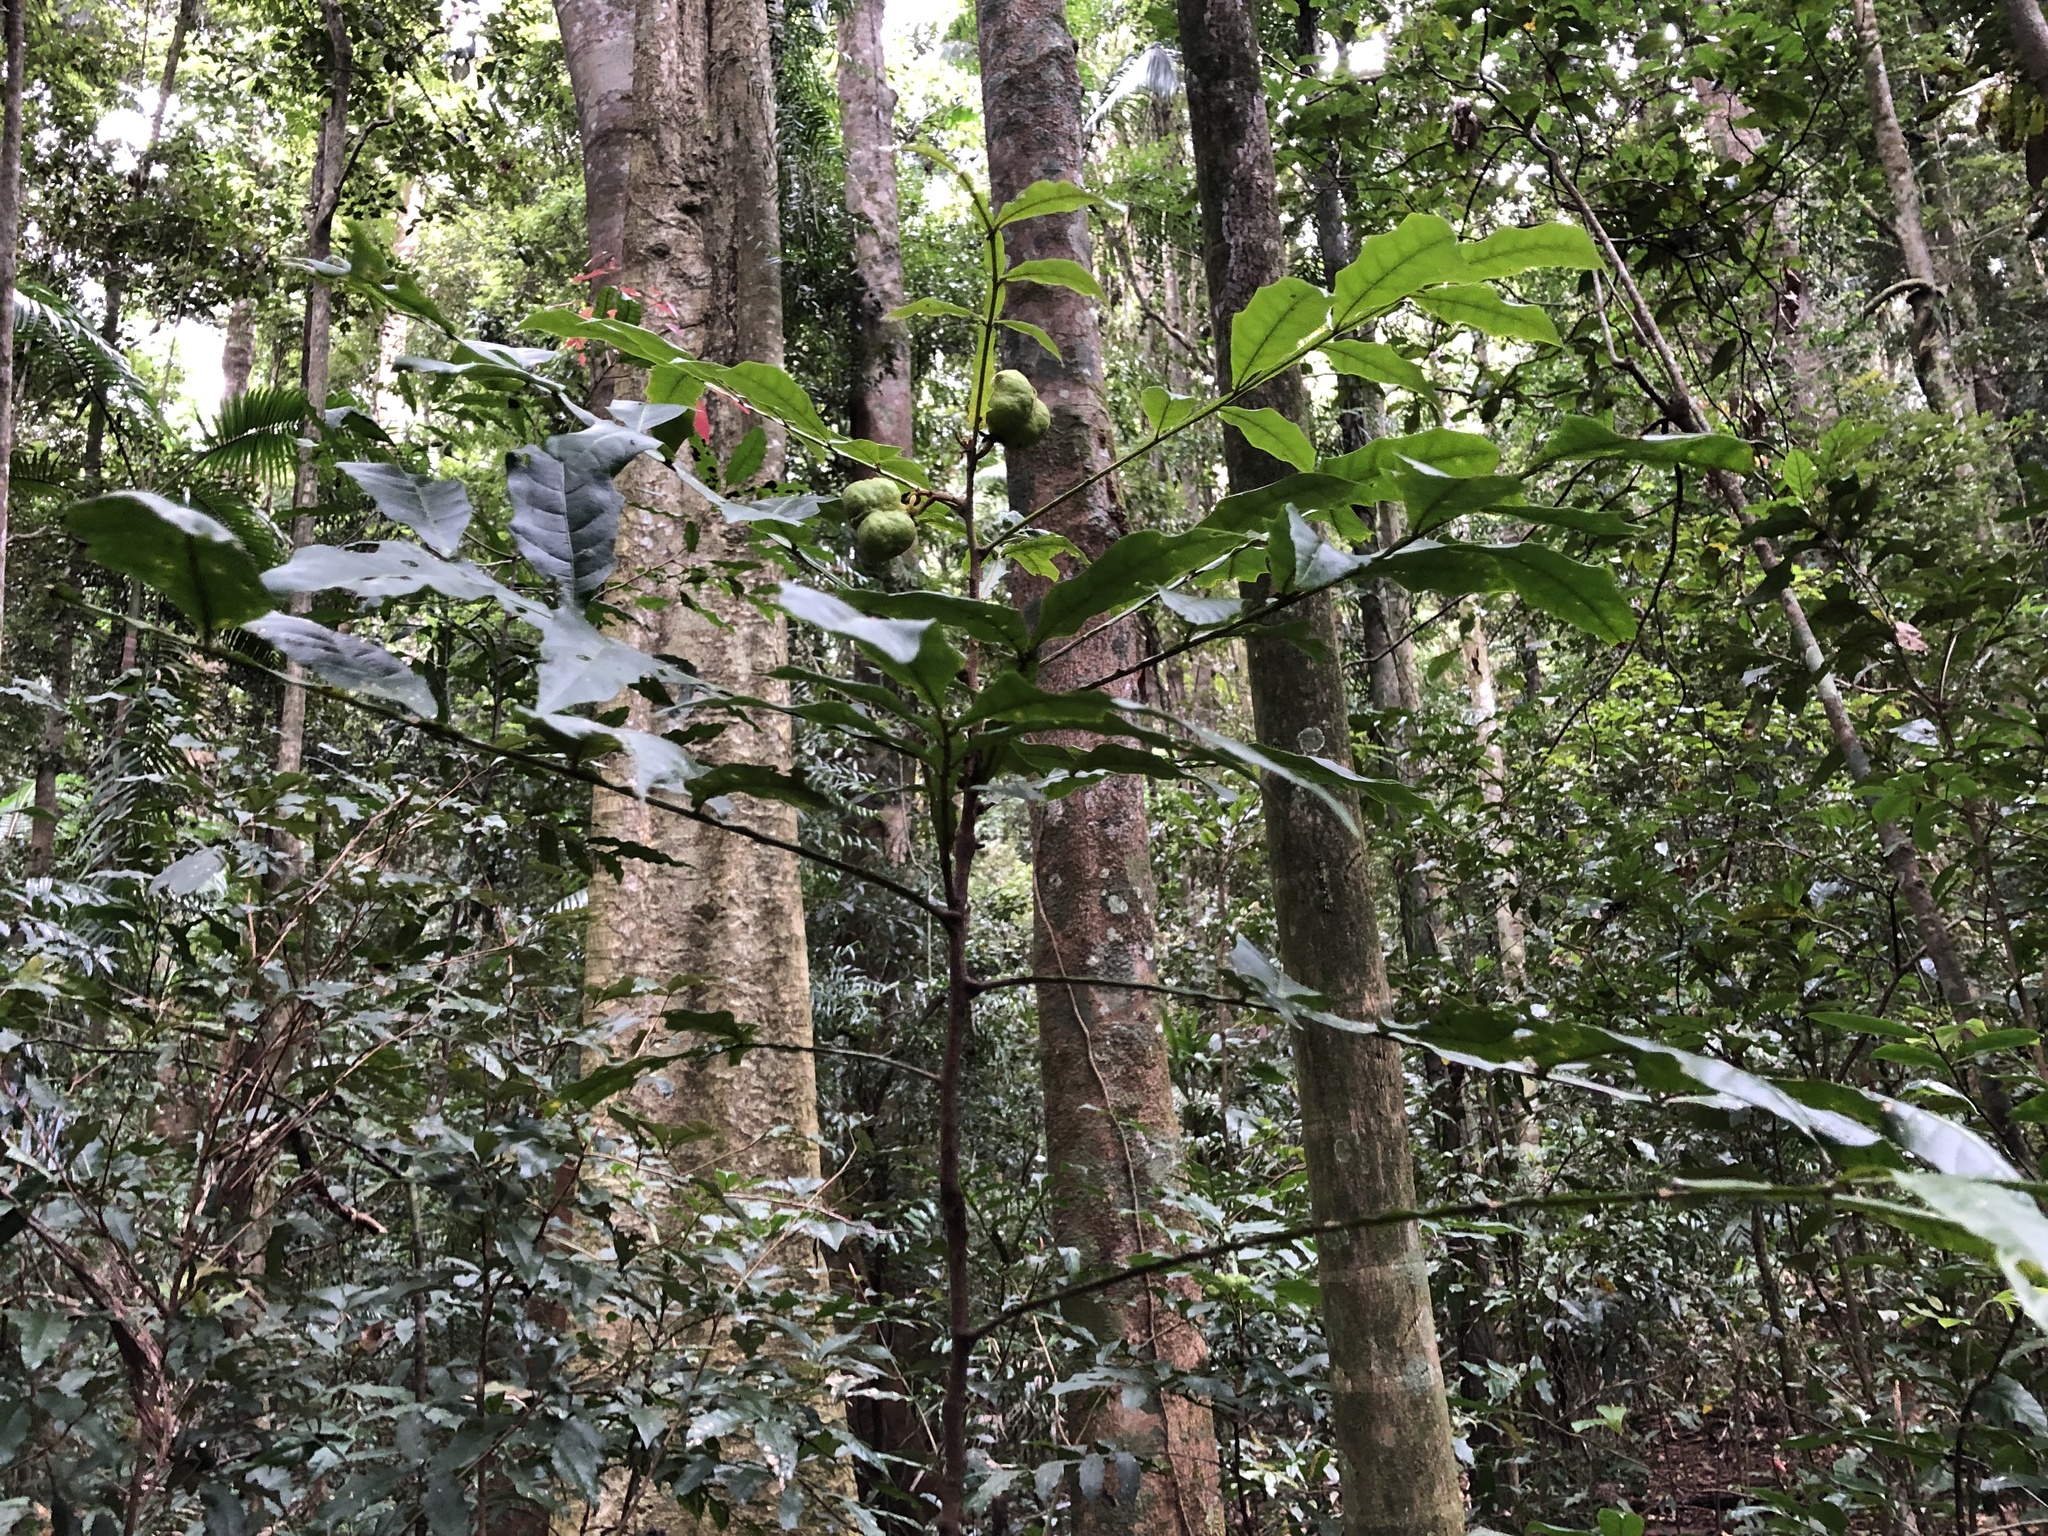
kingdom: Plantae
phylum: Tracheophyta
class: Magnoliopsida
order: Sapindales
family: Sapindaceae
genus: Harpullia
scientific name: Harpullia alata
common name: Wing-leaved tulip
